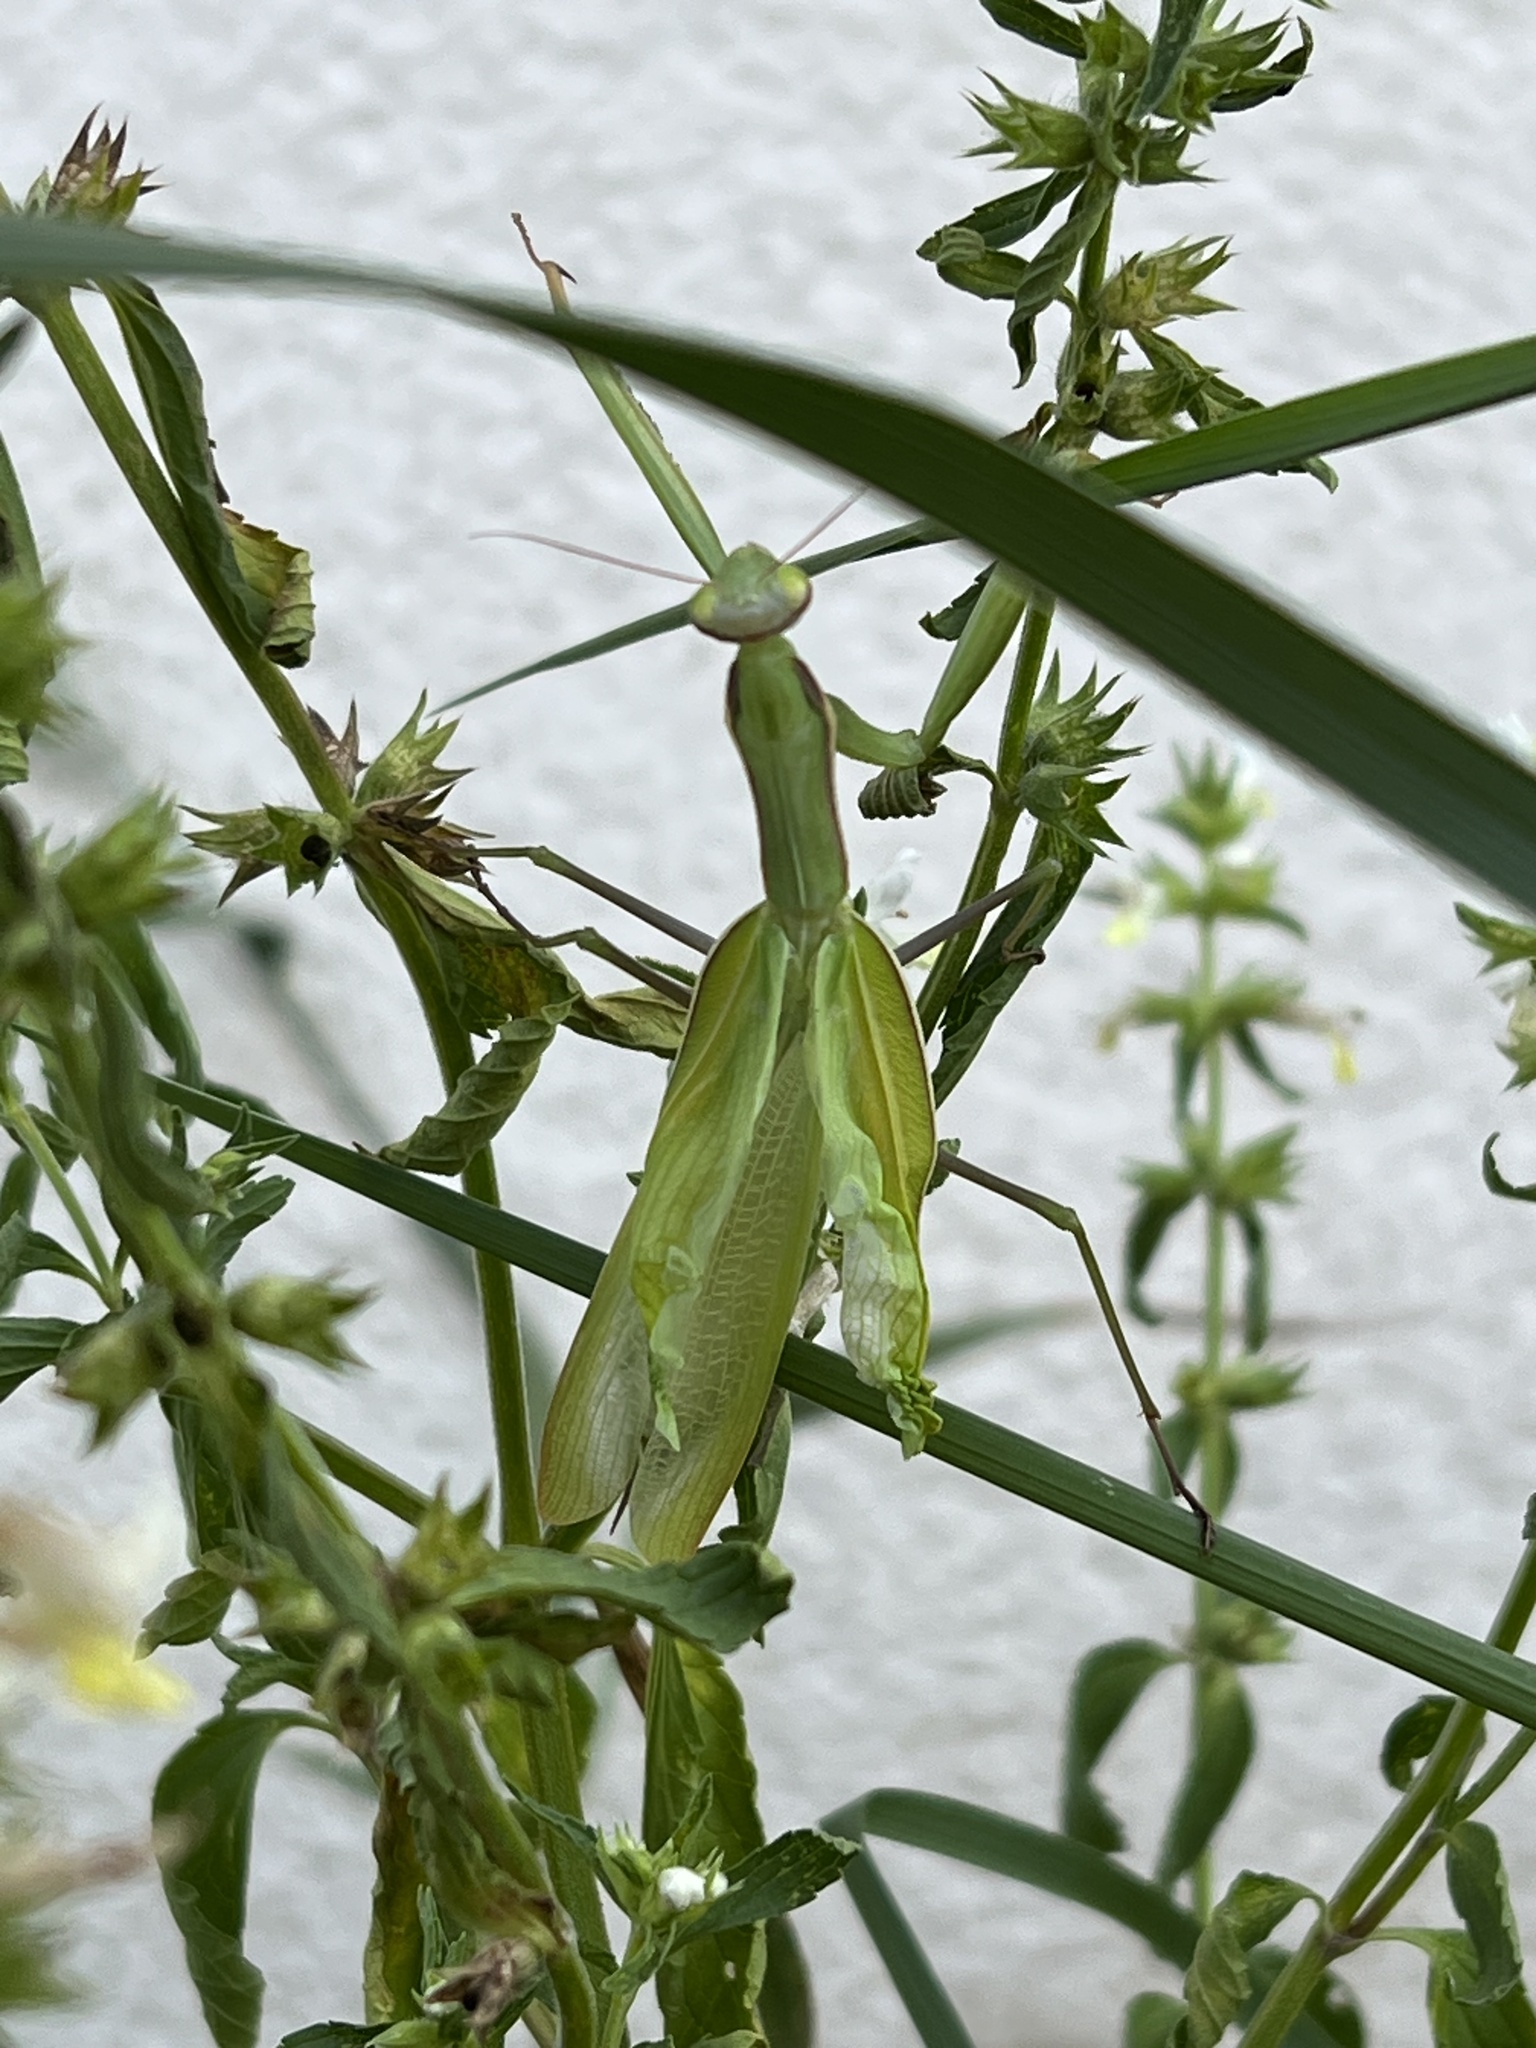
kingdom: Animalia
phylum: Arthropoda
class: Insecta
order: Mantodea
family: Mantidae
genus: Mantis
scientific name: Mantis religiosa
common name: Praying mantis
